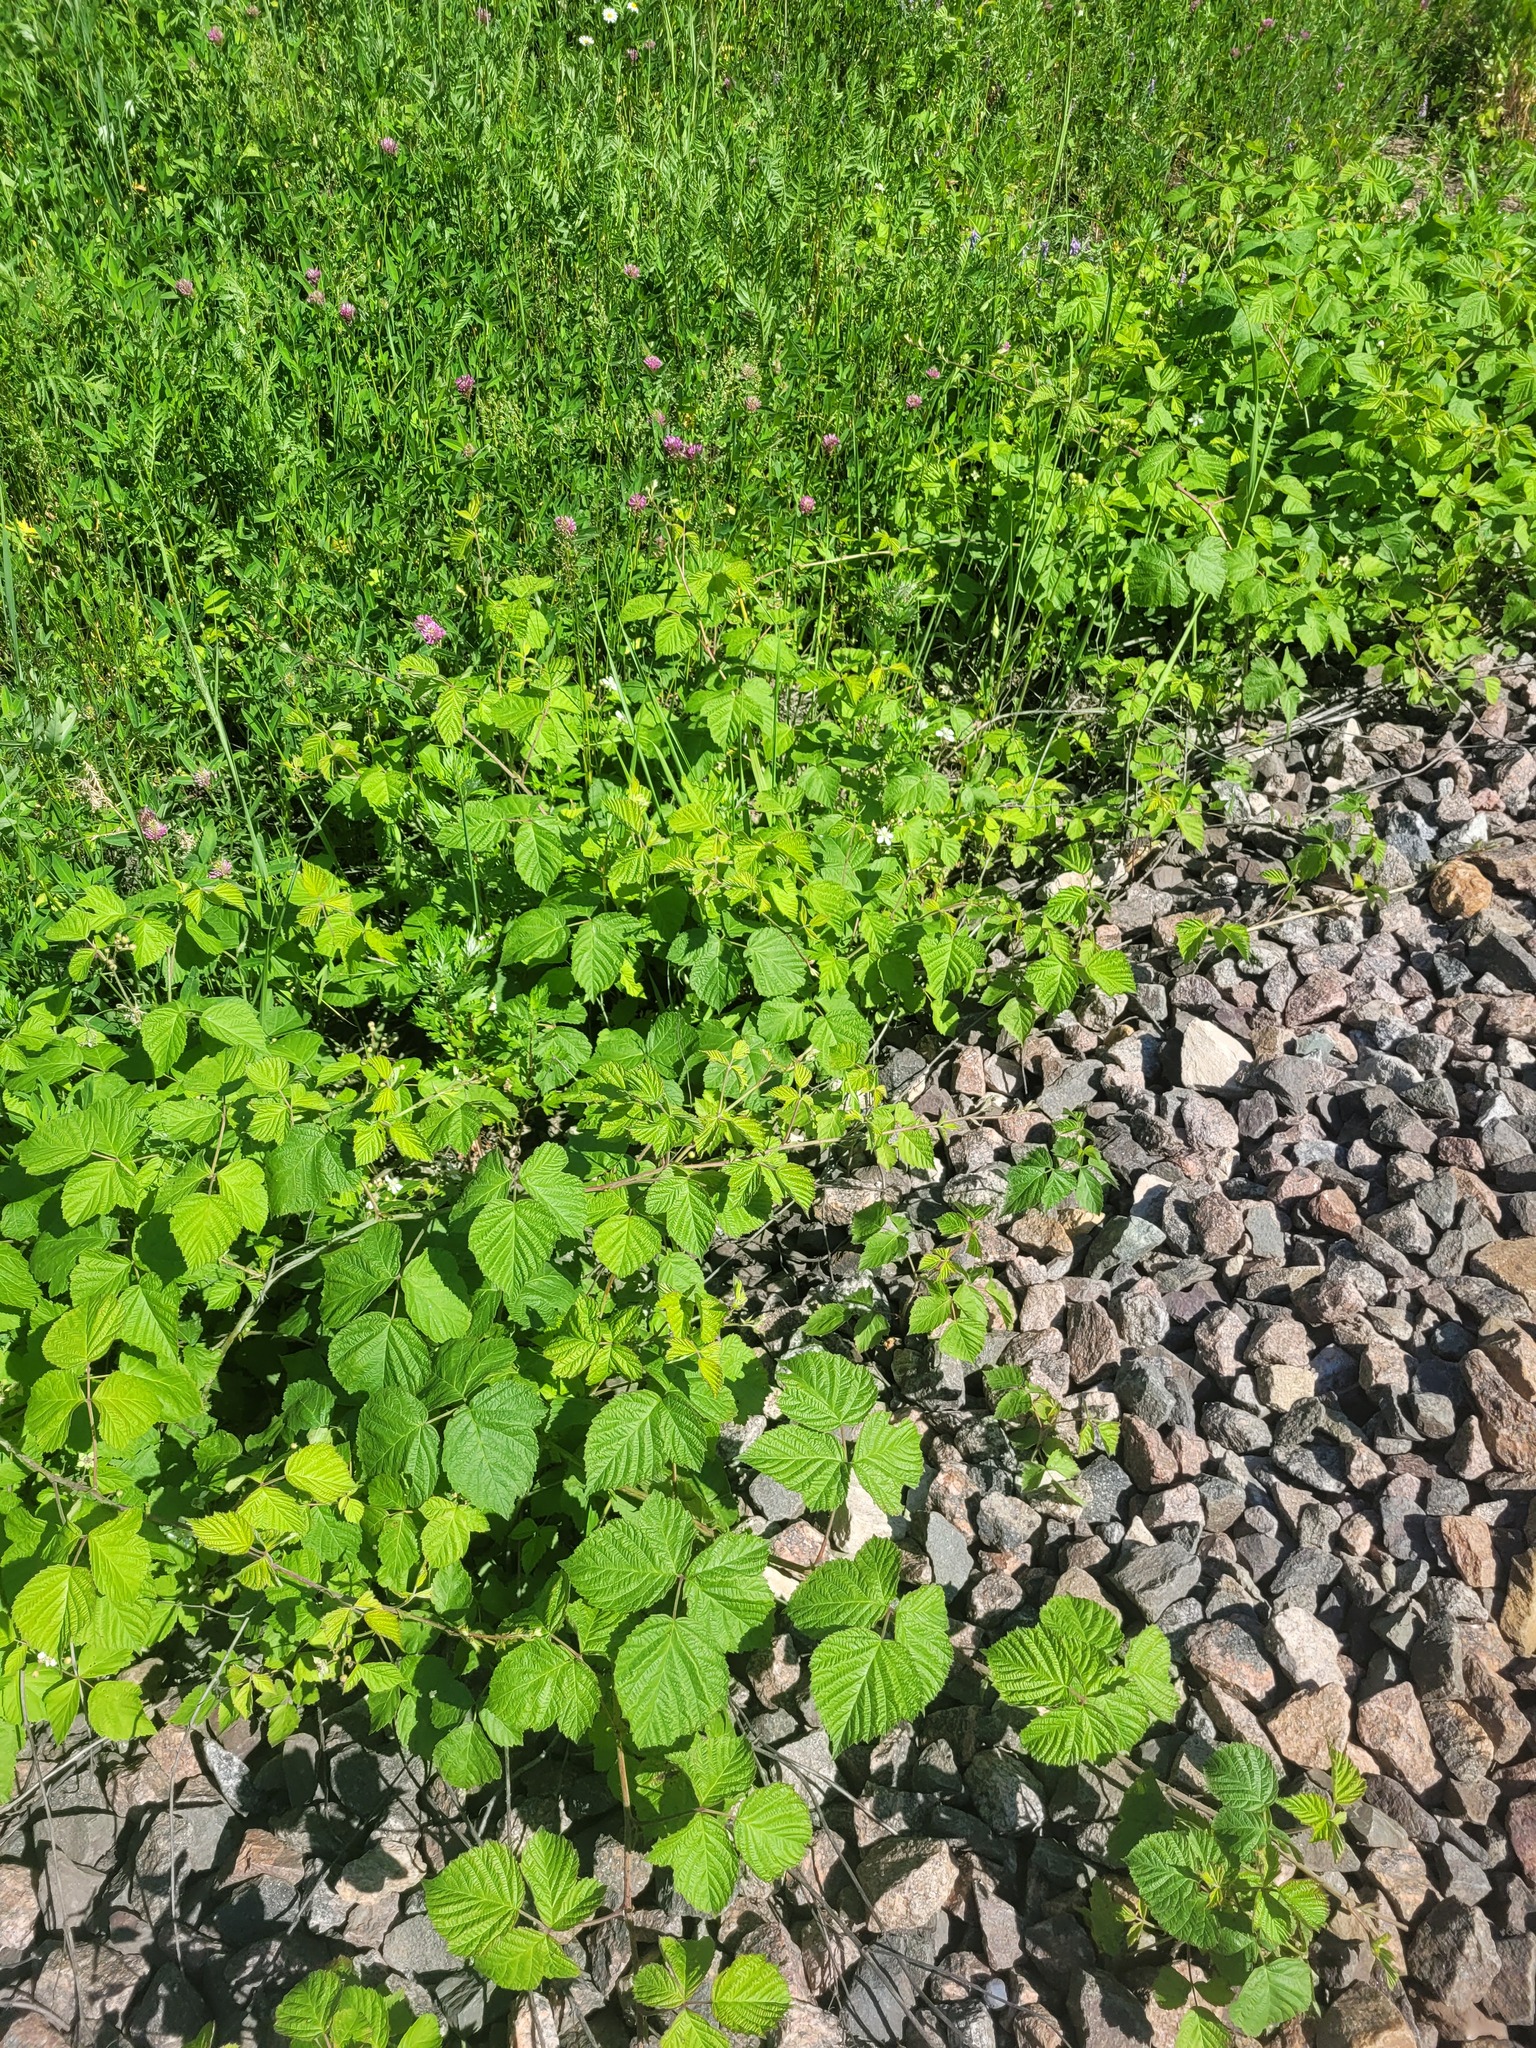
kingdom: Plantae
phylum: Tracheophyta
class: Magnoliopsida
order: Rosales
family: Rosaceae
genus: Rubus
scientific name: Rubus caesius
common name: Dewberry
